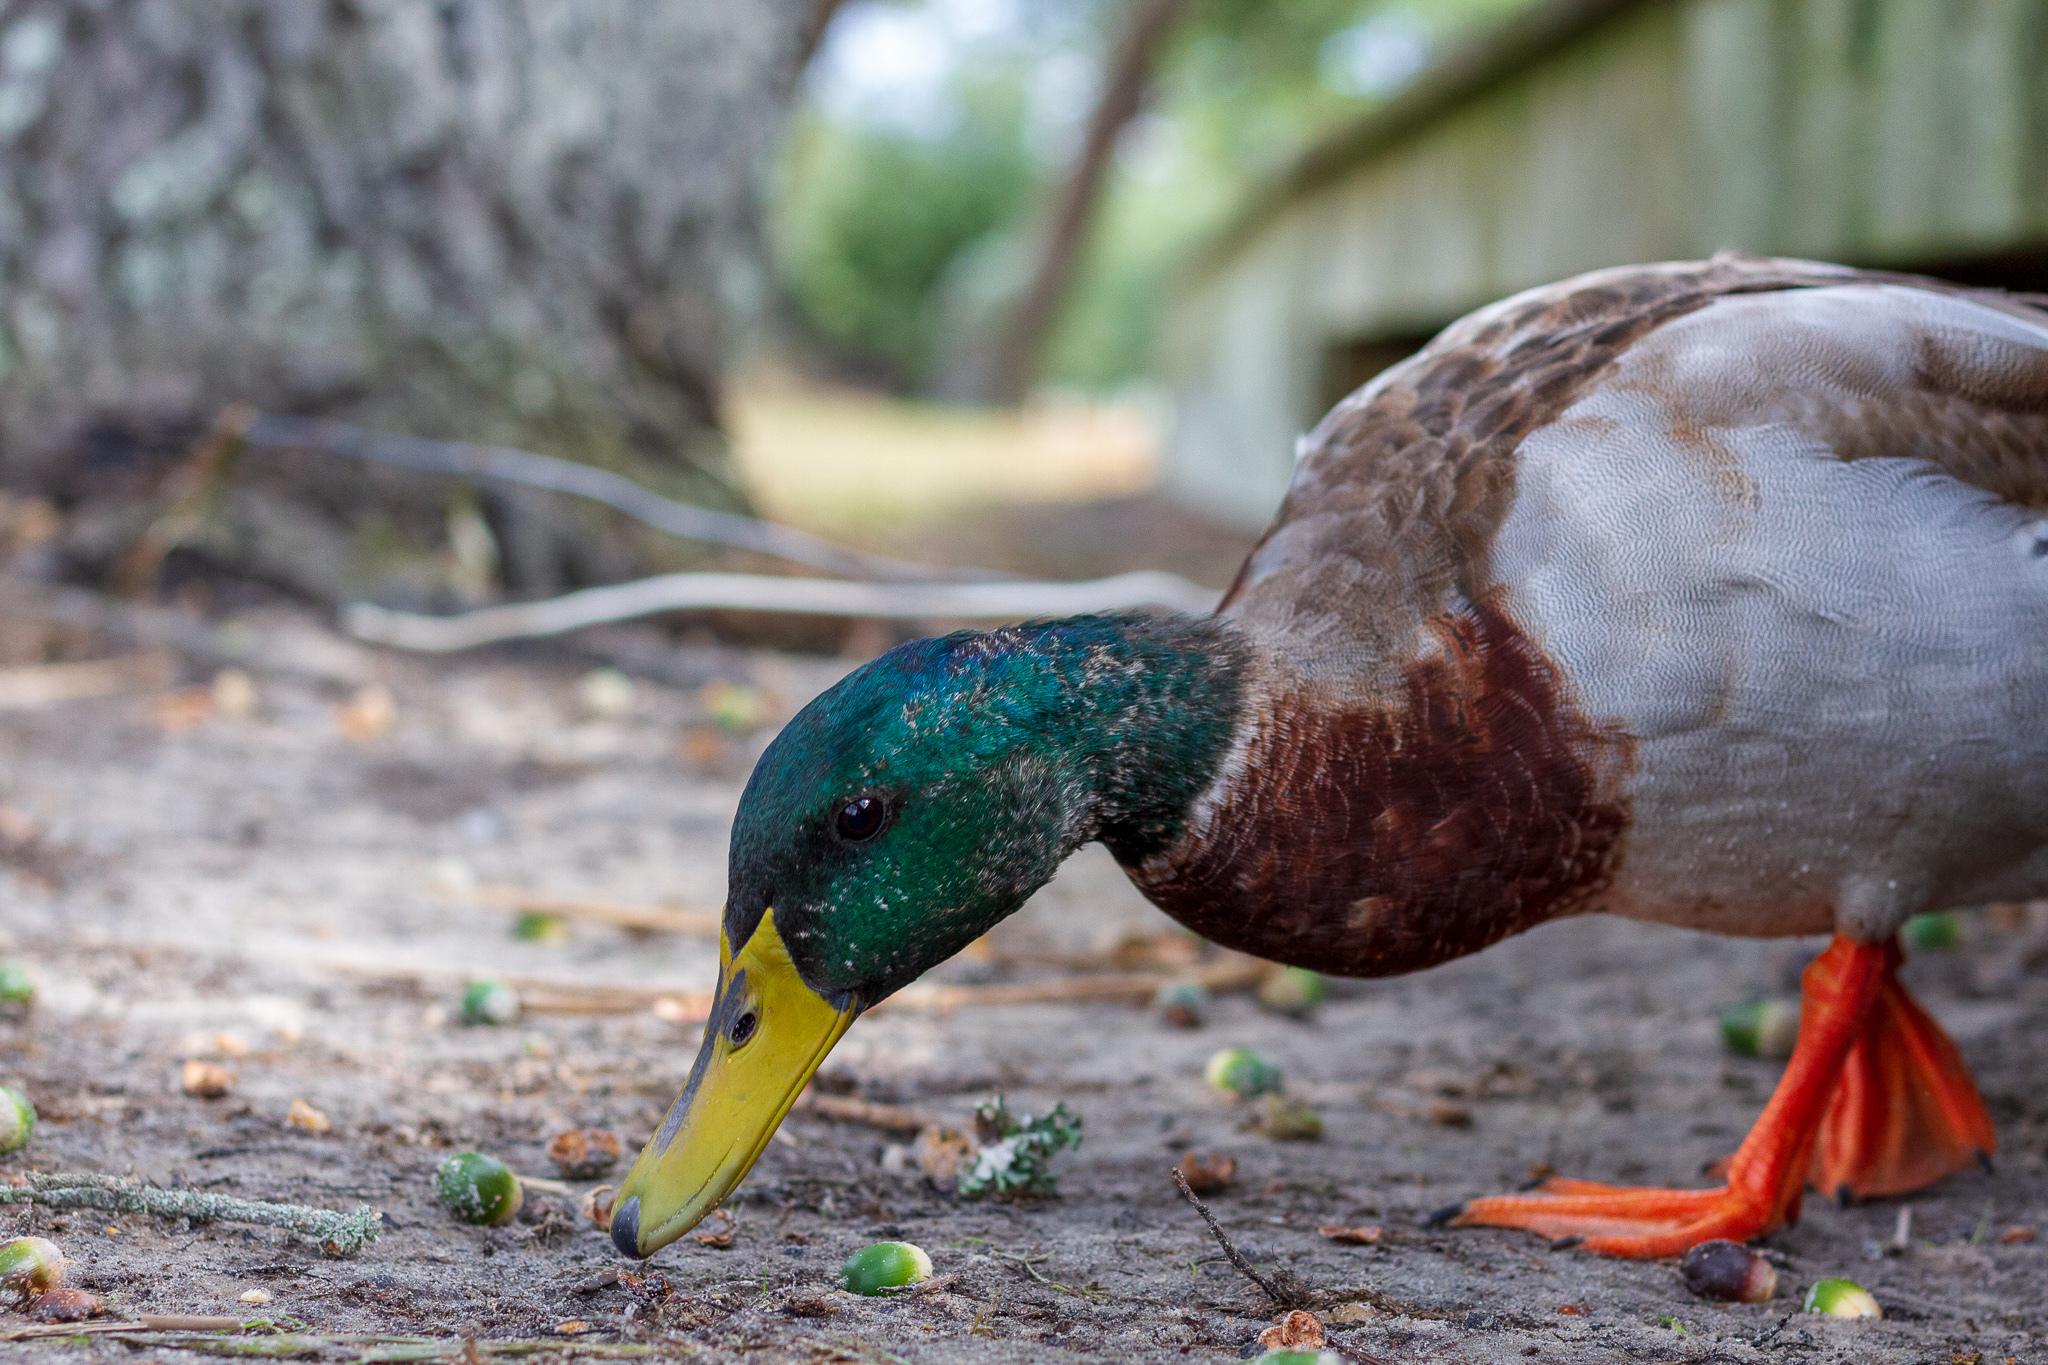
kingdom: Animalia
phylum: Chordata
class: Aves
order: Anseriformes
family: Anatidae
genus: Anas
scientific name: Anas platyrhynchos
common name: Mallard
